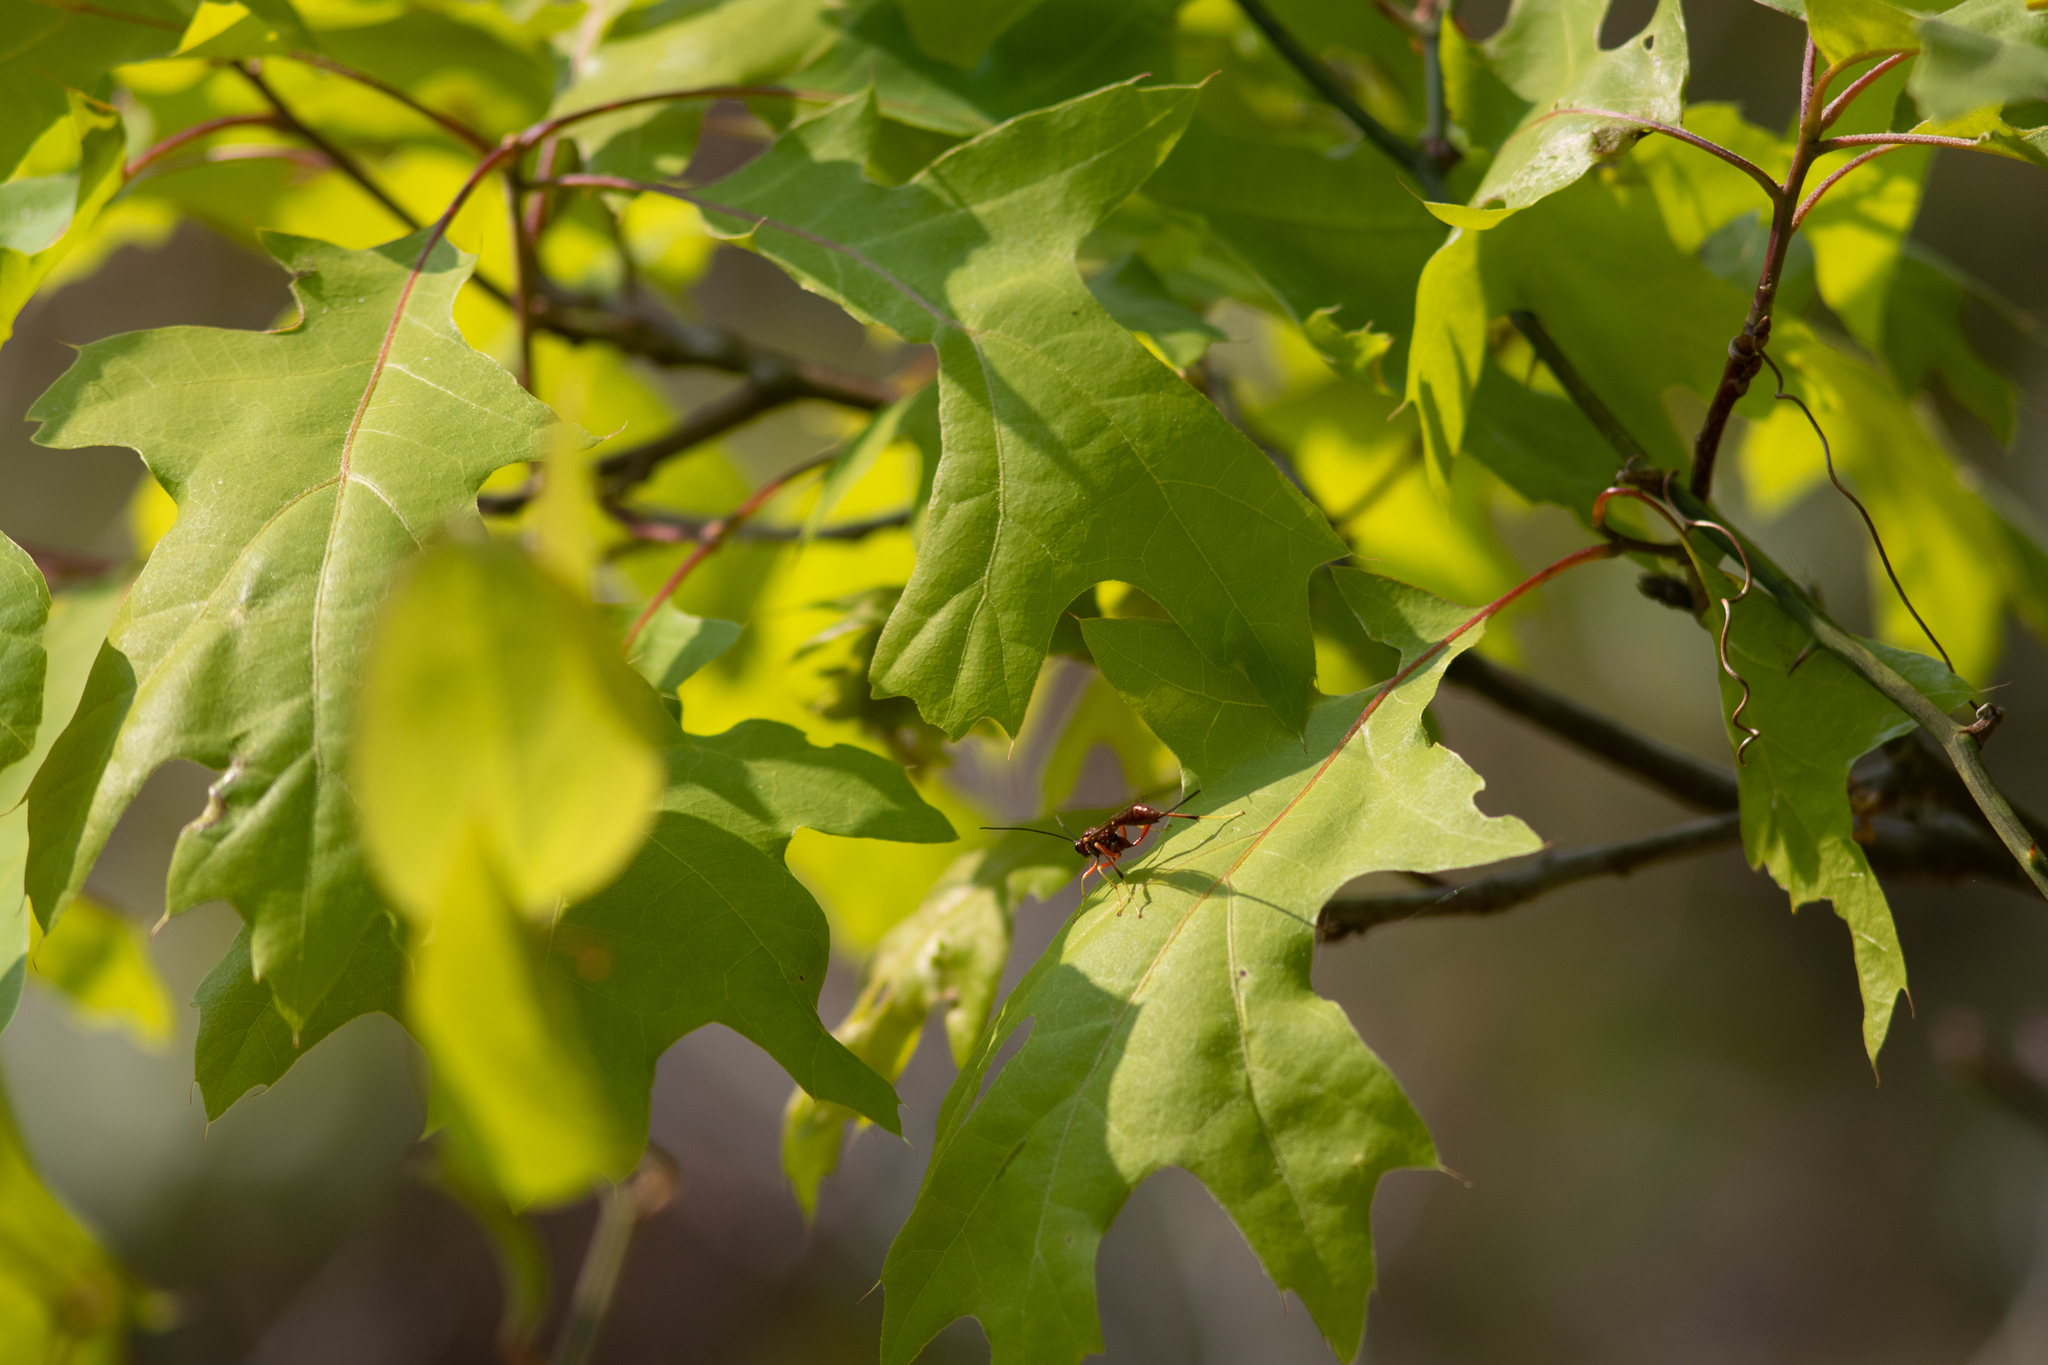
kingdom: Animalia
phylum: Arthropoda
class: Insecta
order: Hymenoptera
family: Ichneumonidae
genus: Coleocentrus
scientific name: Coleocentrus rufus
